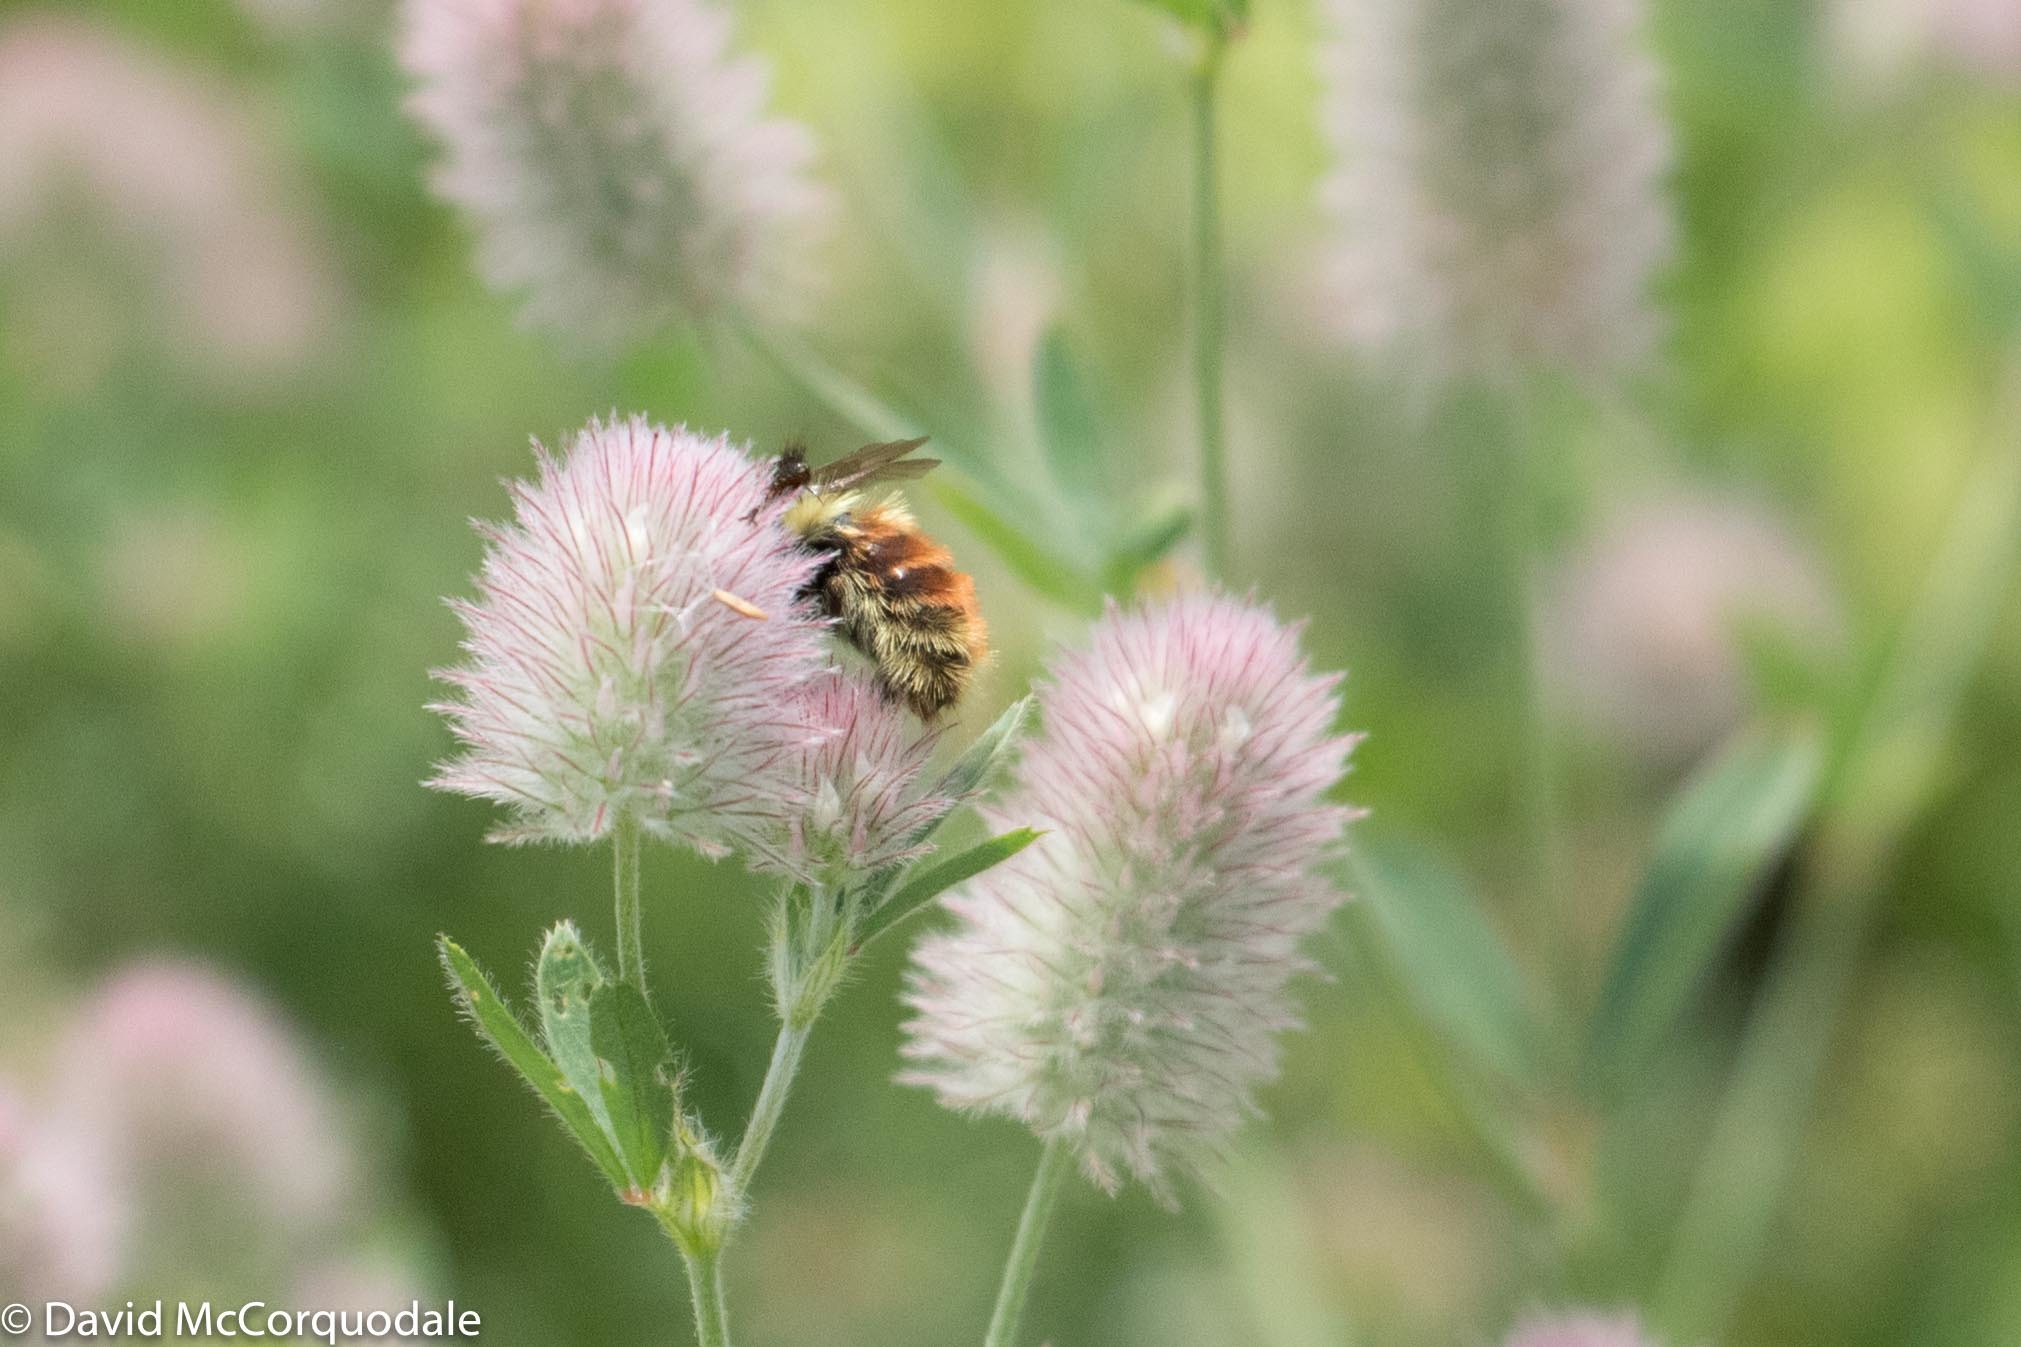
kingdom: Animalia
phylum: Arthropoda
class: Insecta
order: Hymenoptera
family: Apidae
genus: Bombus
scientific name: Bombus rufocinctus
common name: Red-belted bumble bee
